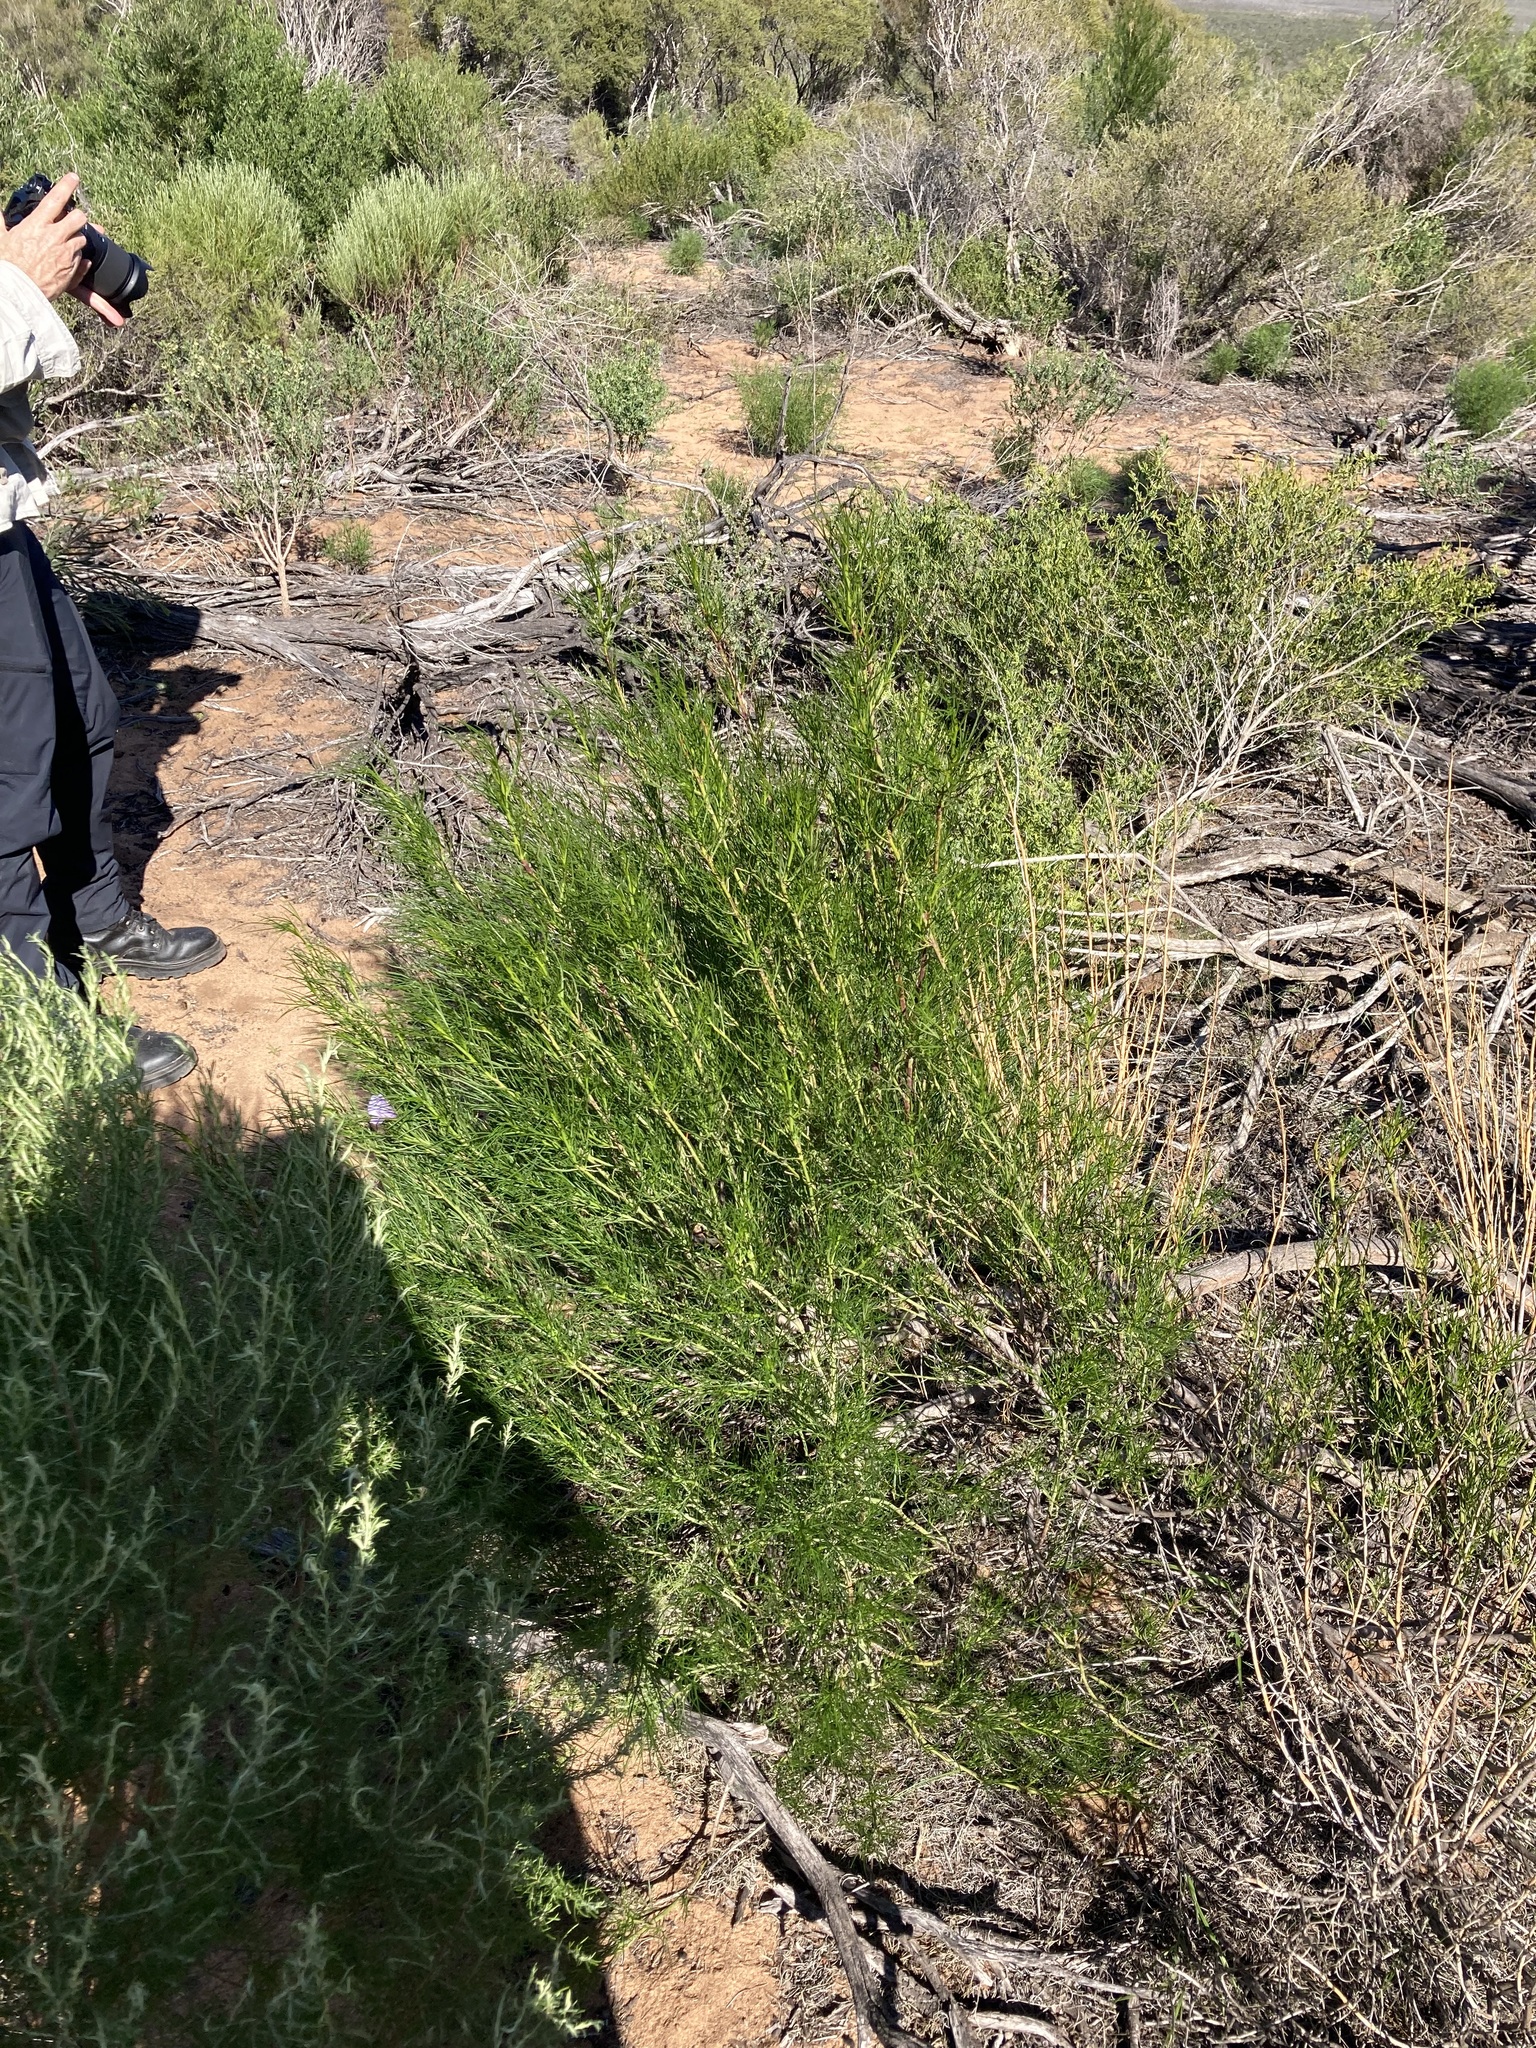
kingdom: Plantae
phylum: Tracheophyta
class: Magnoliopsida
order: Malvales
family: Malvaceae
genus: Hibiscus
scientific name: Hibiscus hakeifolius
